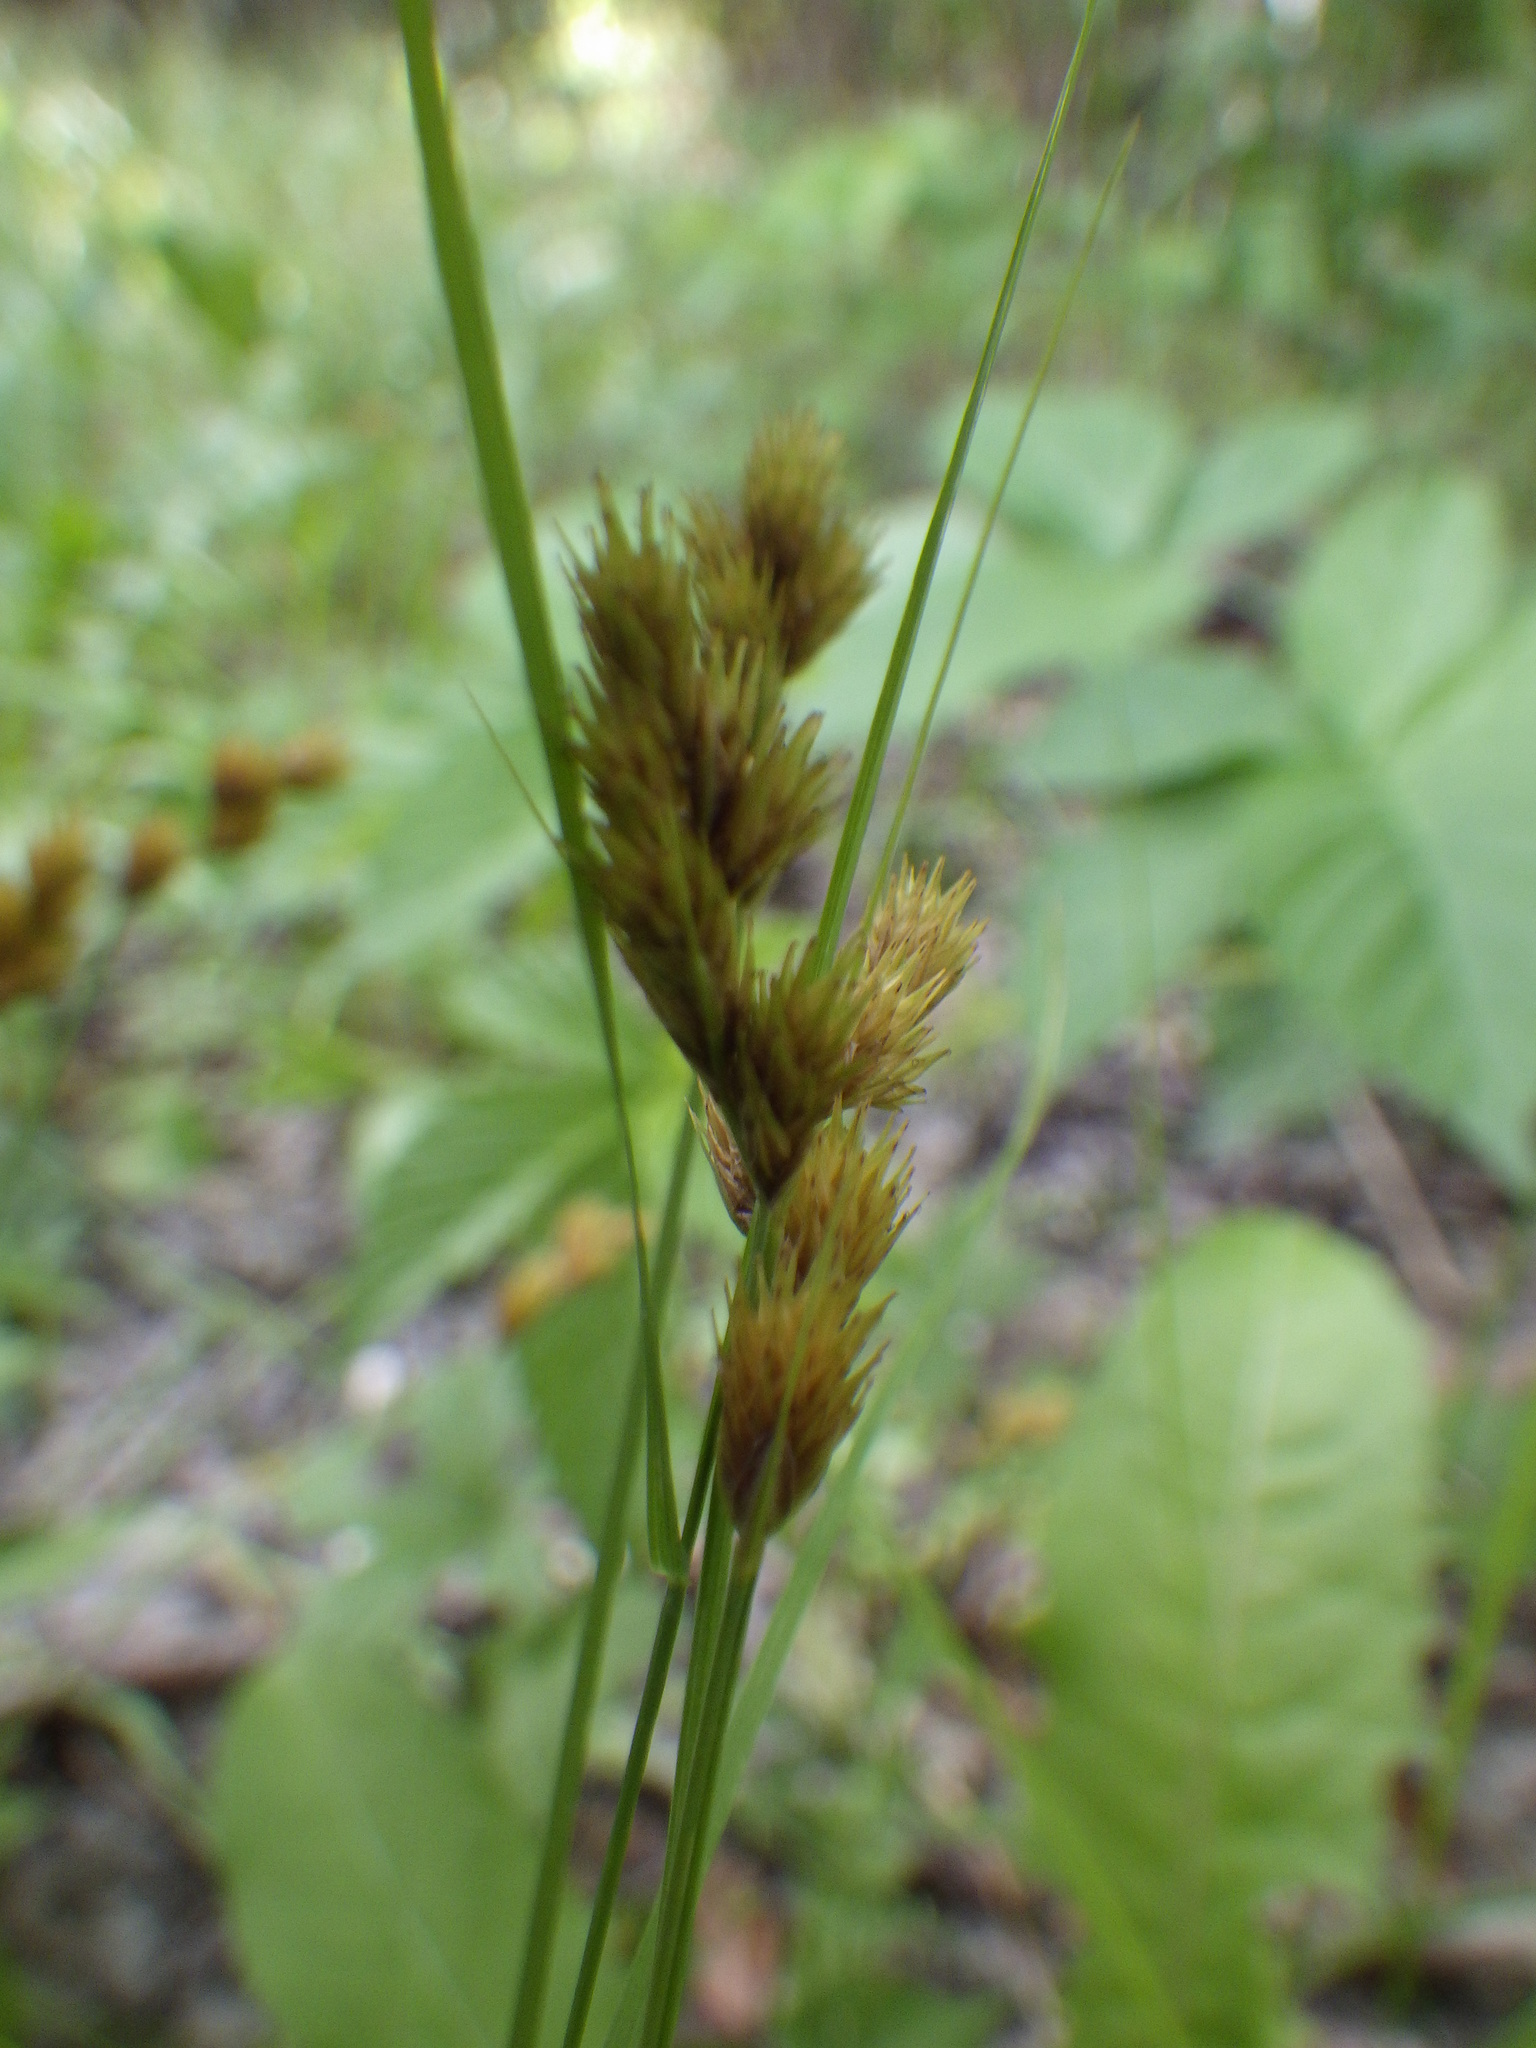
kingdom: Plantae
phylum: Tracheophyta
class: Liliopsida
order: Poales
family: Cyperaceae
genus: Carex
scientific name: Carex scoparia
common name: Broom sedge
